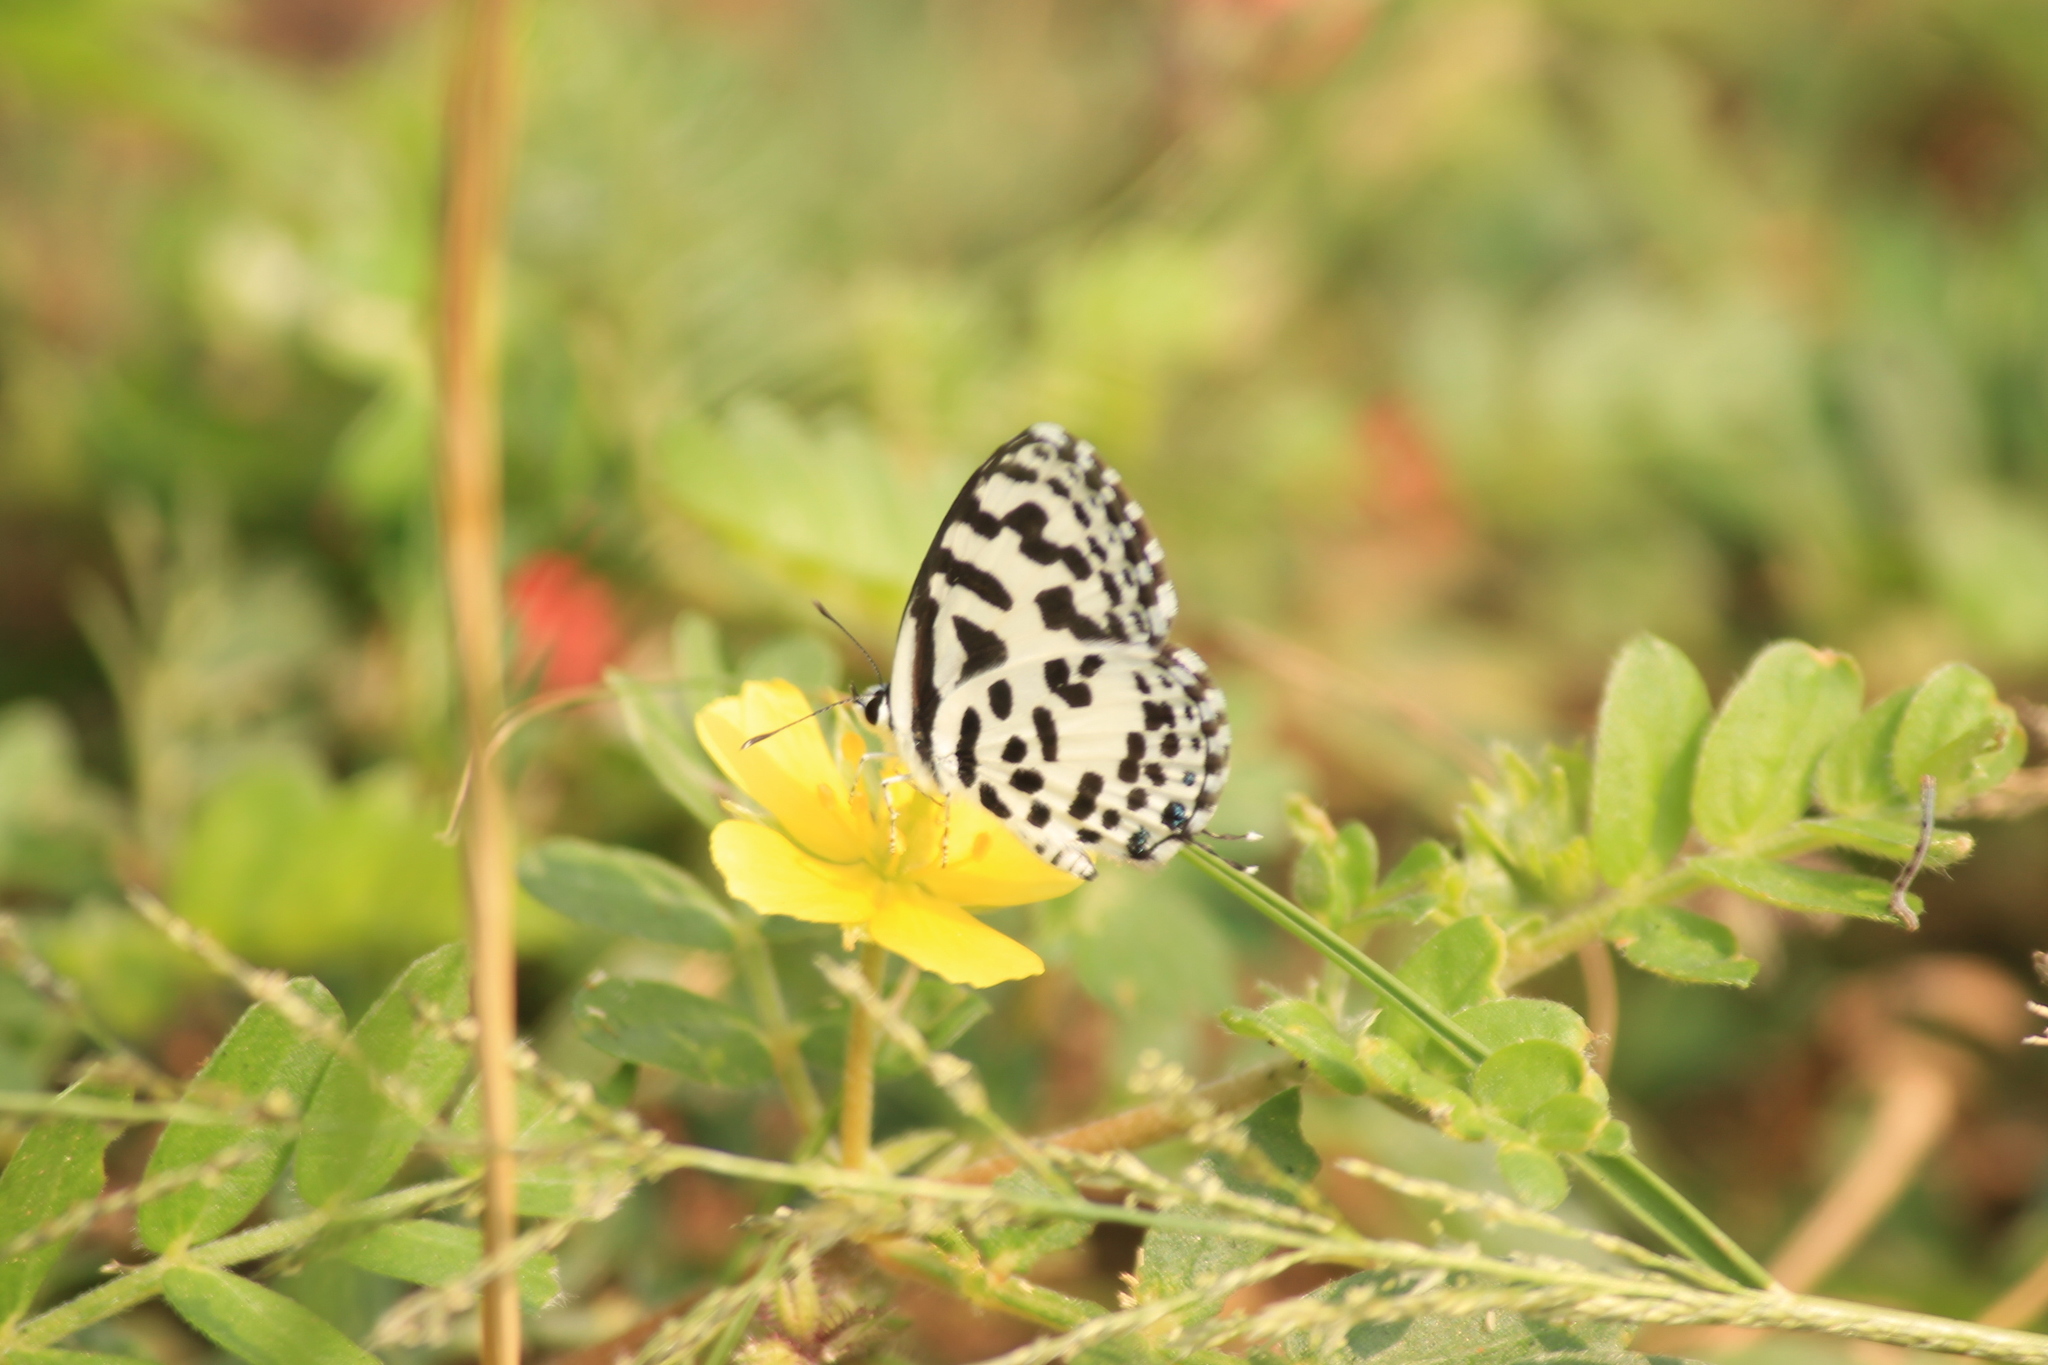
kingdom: Animalia
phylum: Arthropoda
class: Insecta
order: Lepidoptera
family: Lycaenidae
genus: Castalius
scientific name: Castalius rosimon
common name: Common pierrot
